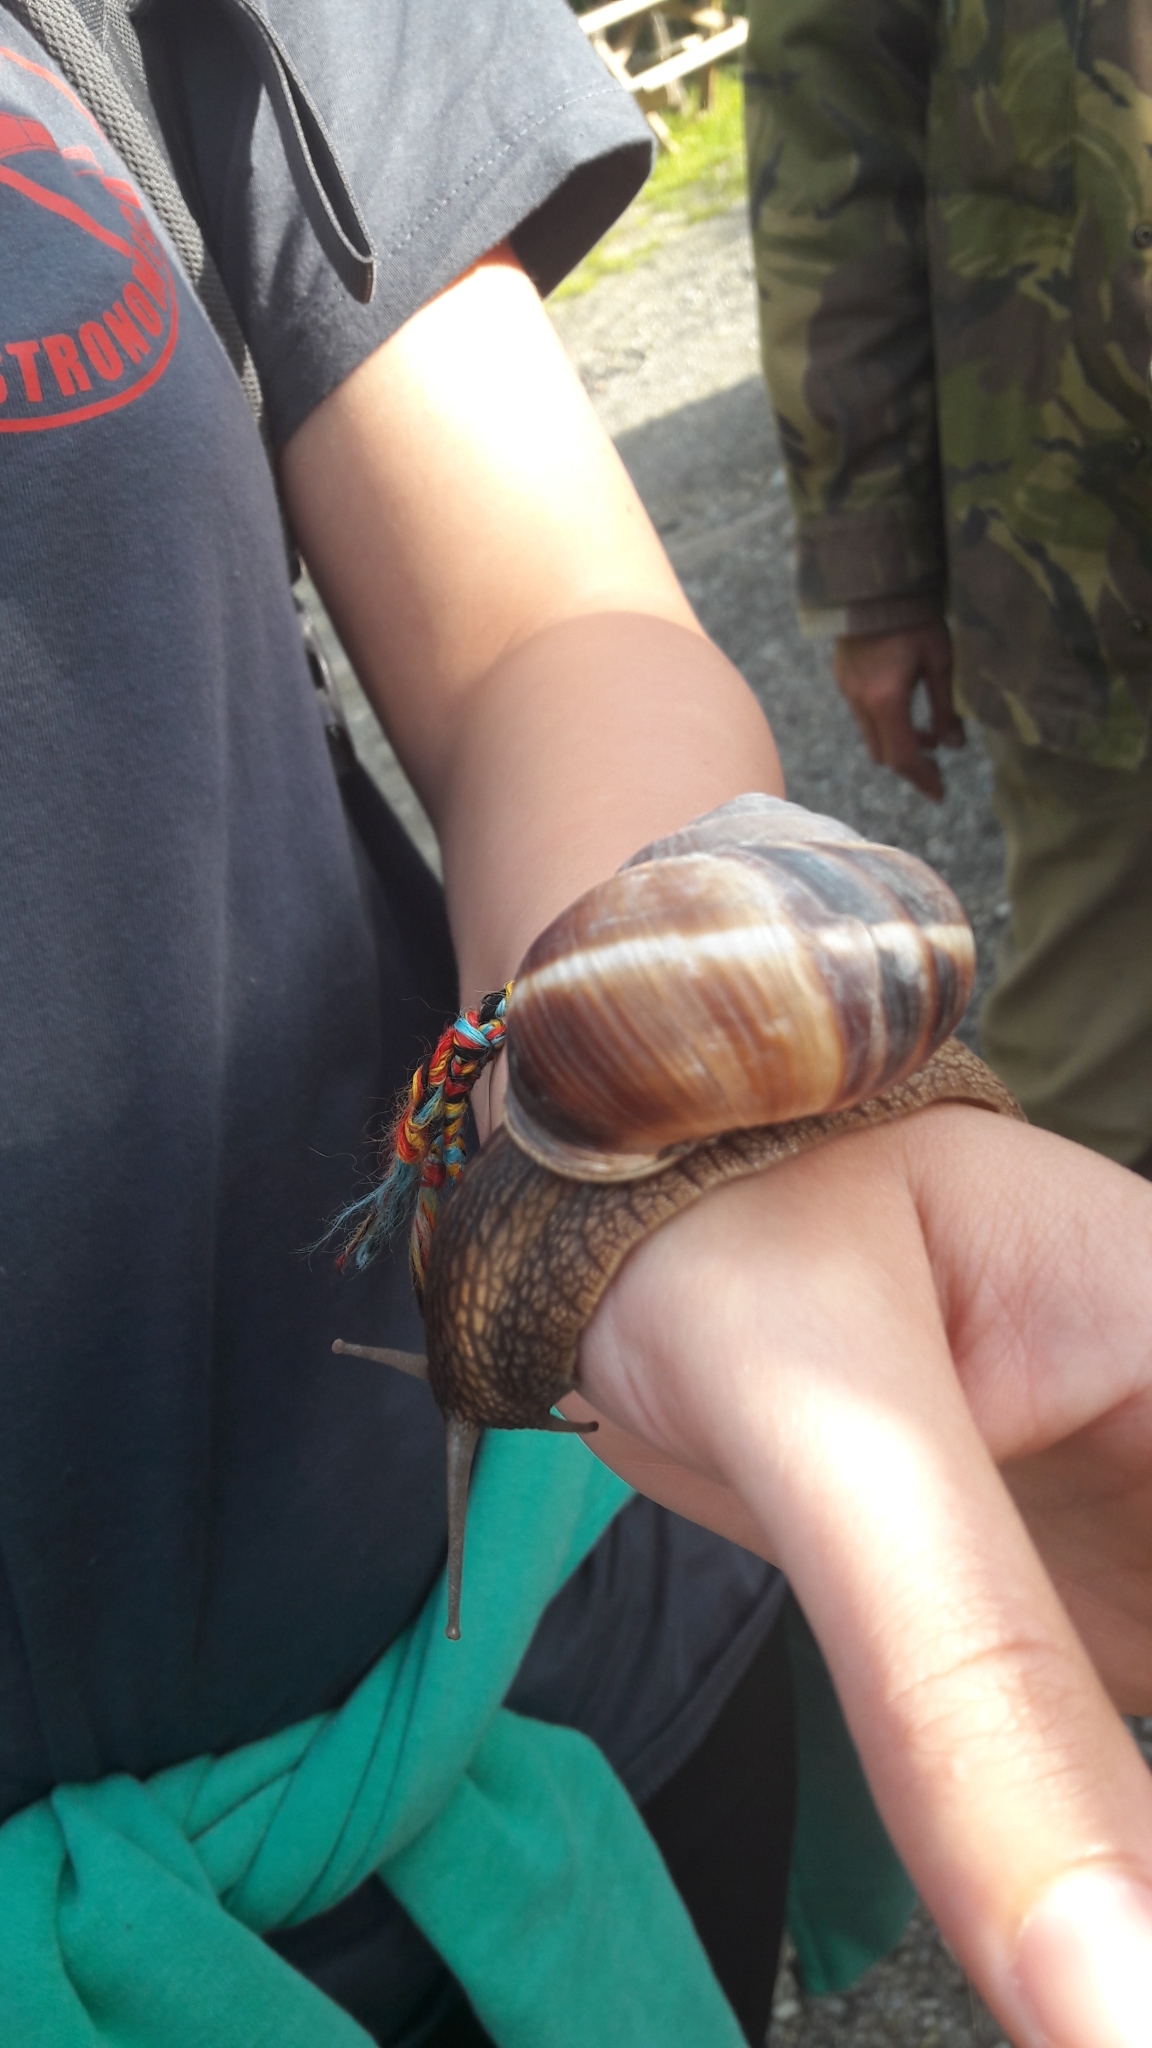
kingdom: Animalia
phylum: Mollusca
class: Gastropoda
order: Stylommatophora
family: Helicidae
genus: Helix
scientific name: Helix lucorum
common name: Turkish snail
